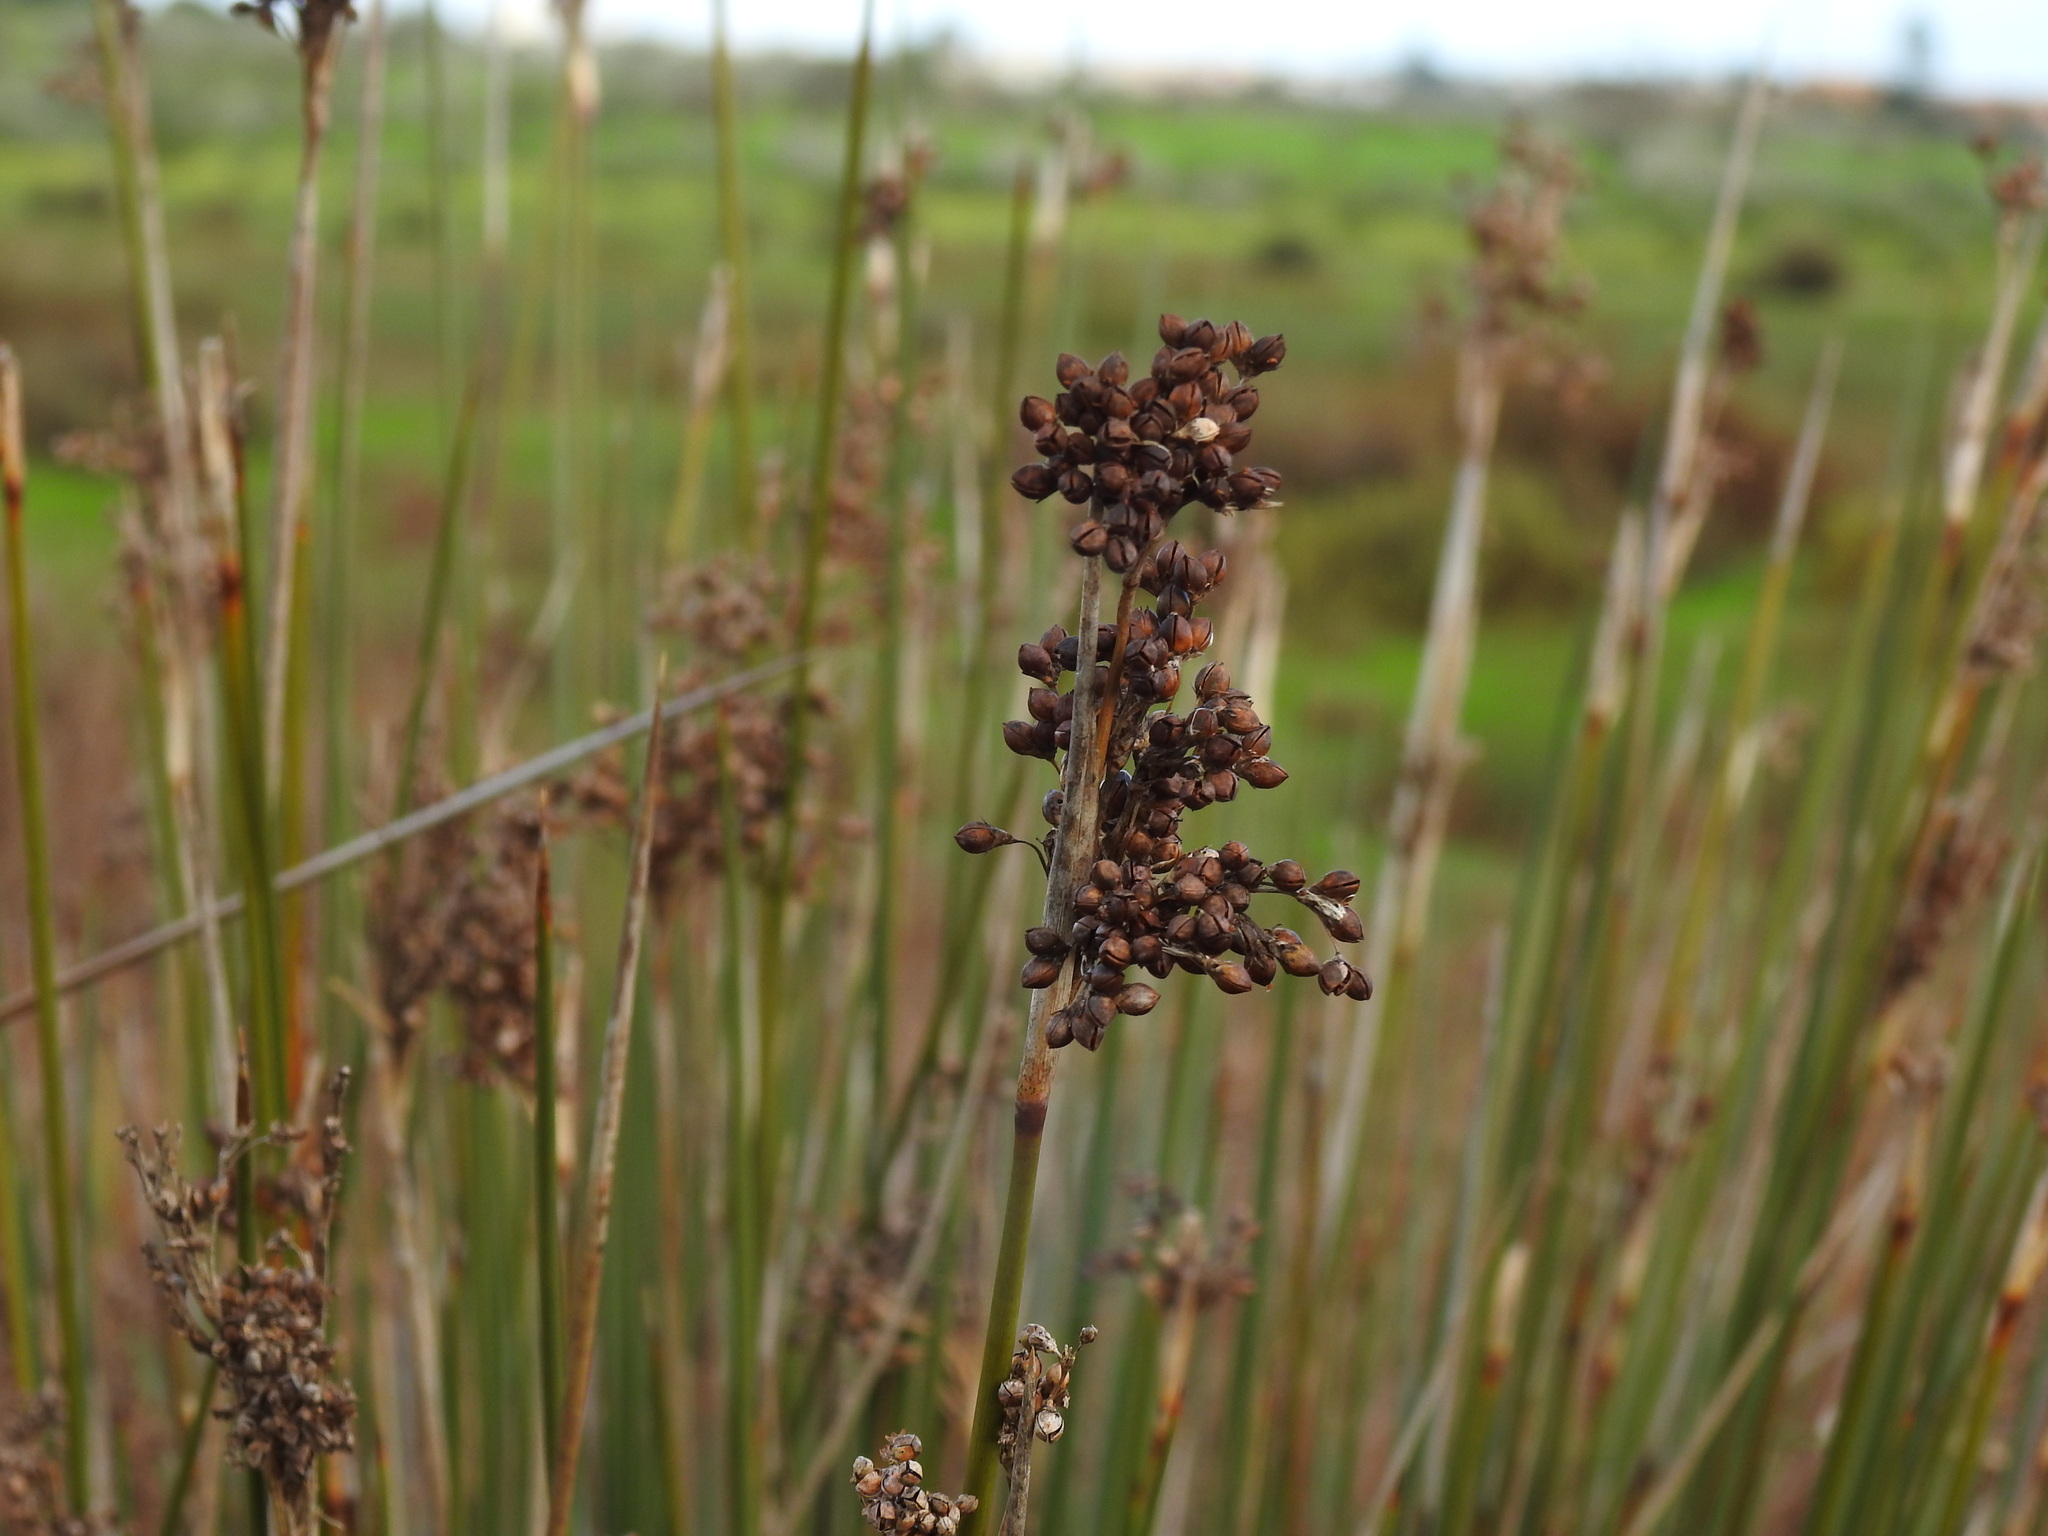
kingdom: Plantae
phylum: Tracheophyta
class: Liliopsida
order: Poales
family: Juncaceae
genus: Juncus
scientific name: Juncus acutus
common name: Sharp rush
